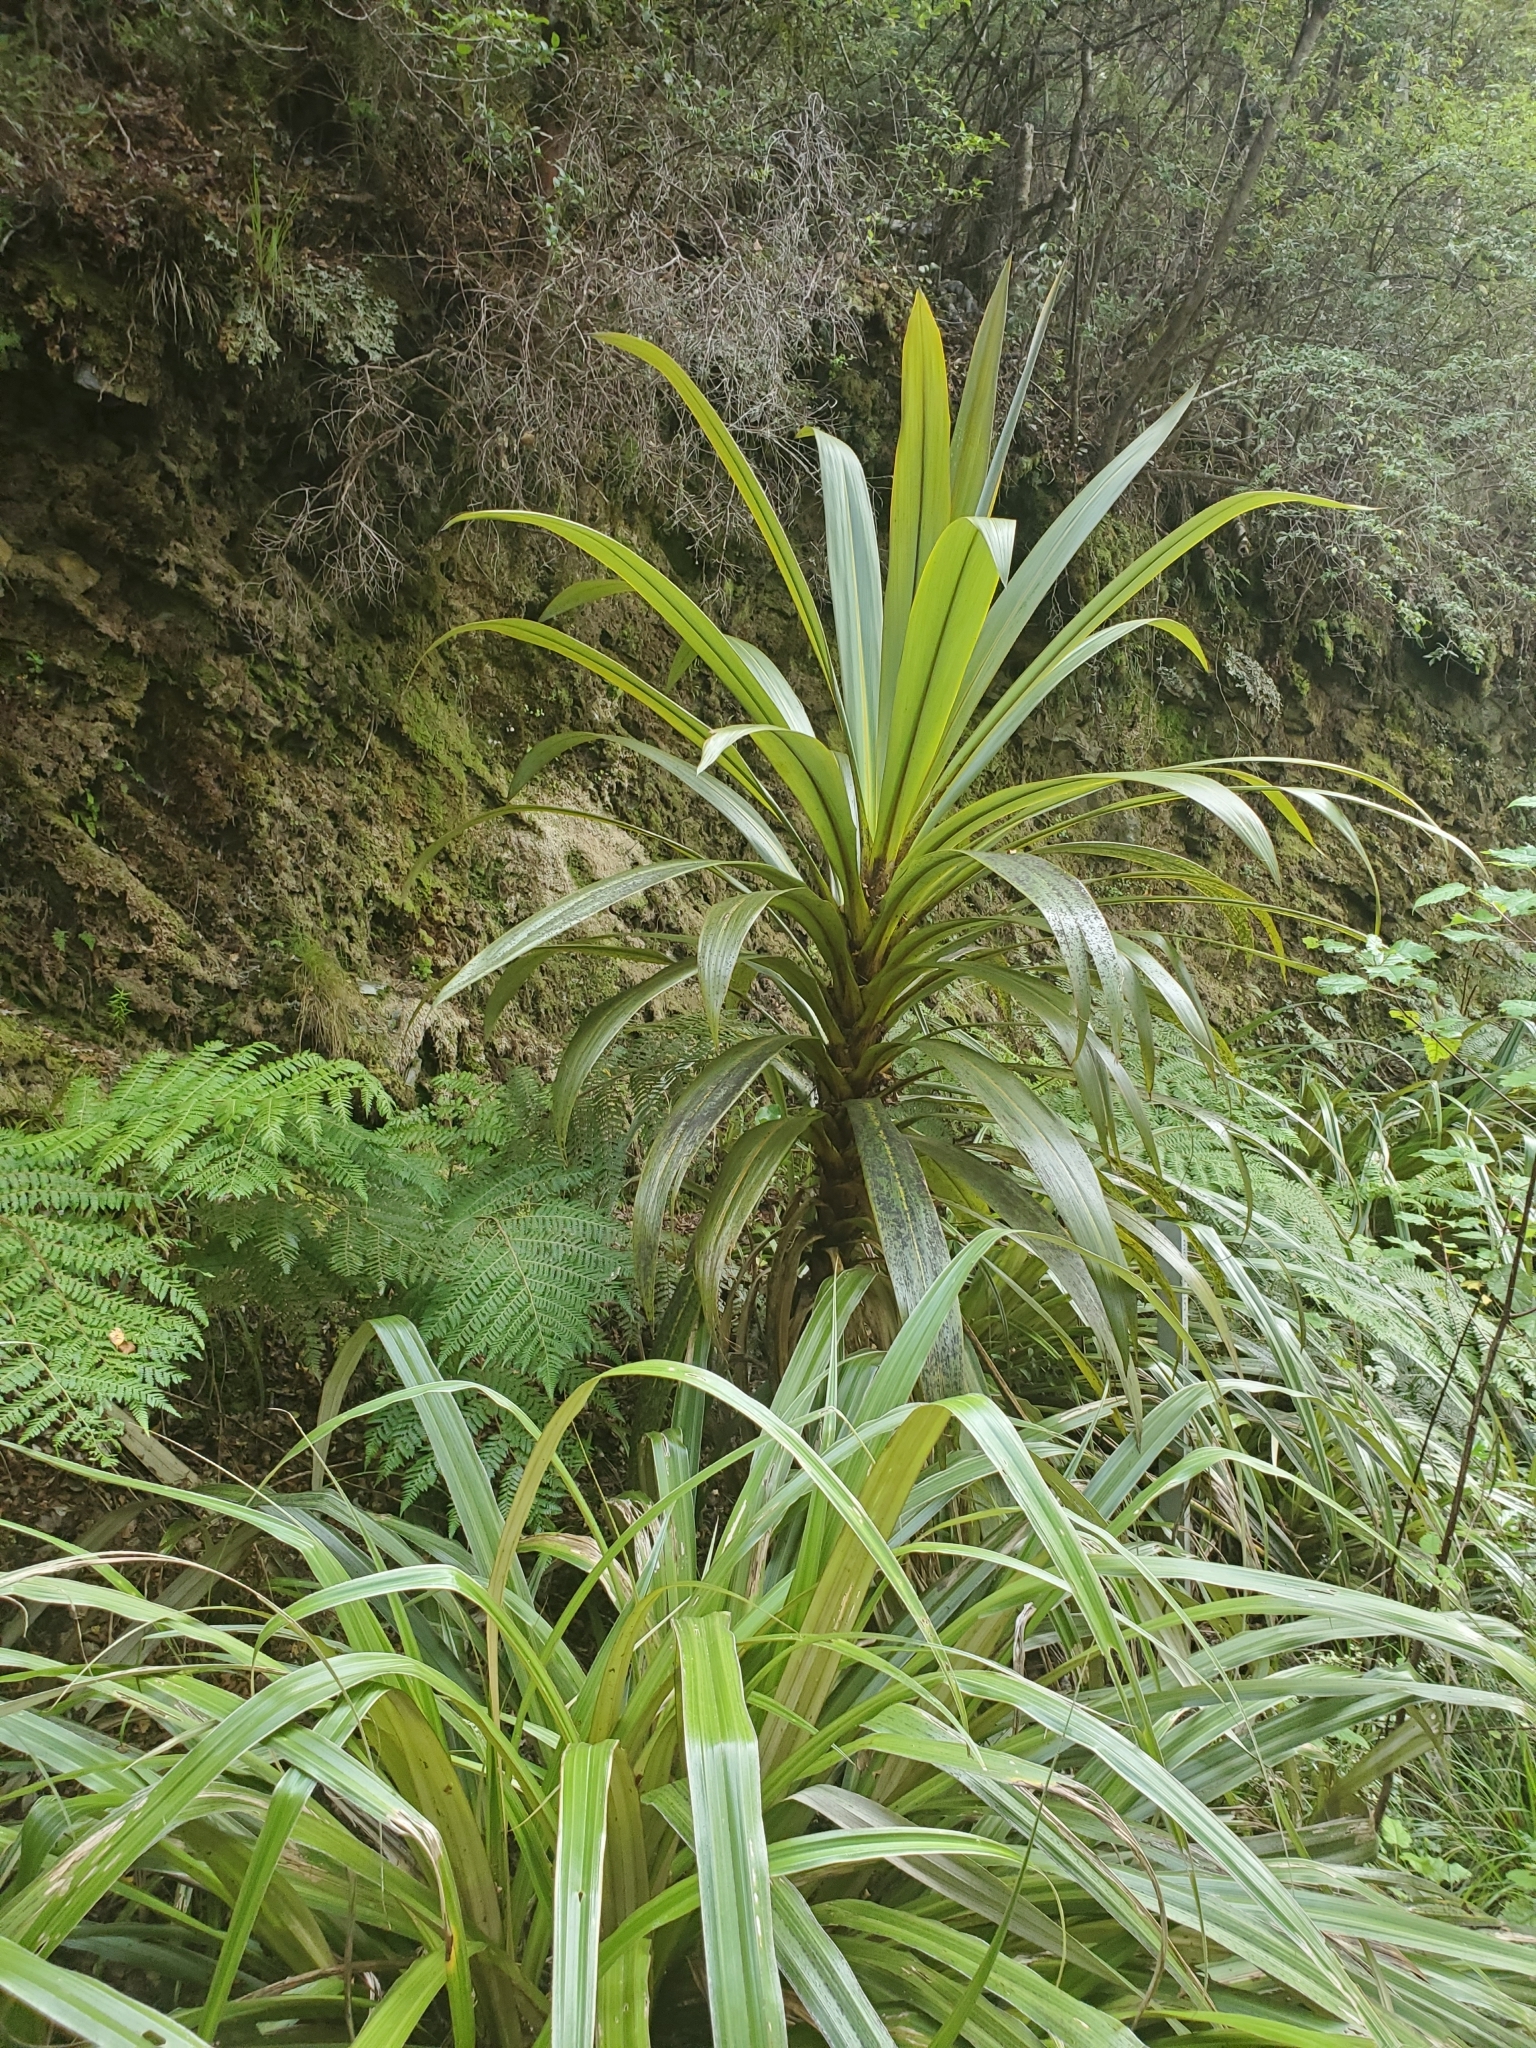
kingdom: Plantae
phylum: Tracheophyta
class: Liliopsida
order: Asparagales
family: Asparagaceae
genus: Cordyline
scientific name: Cordyline indivisa
